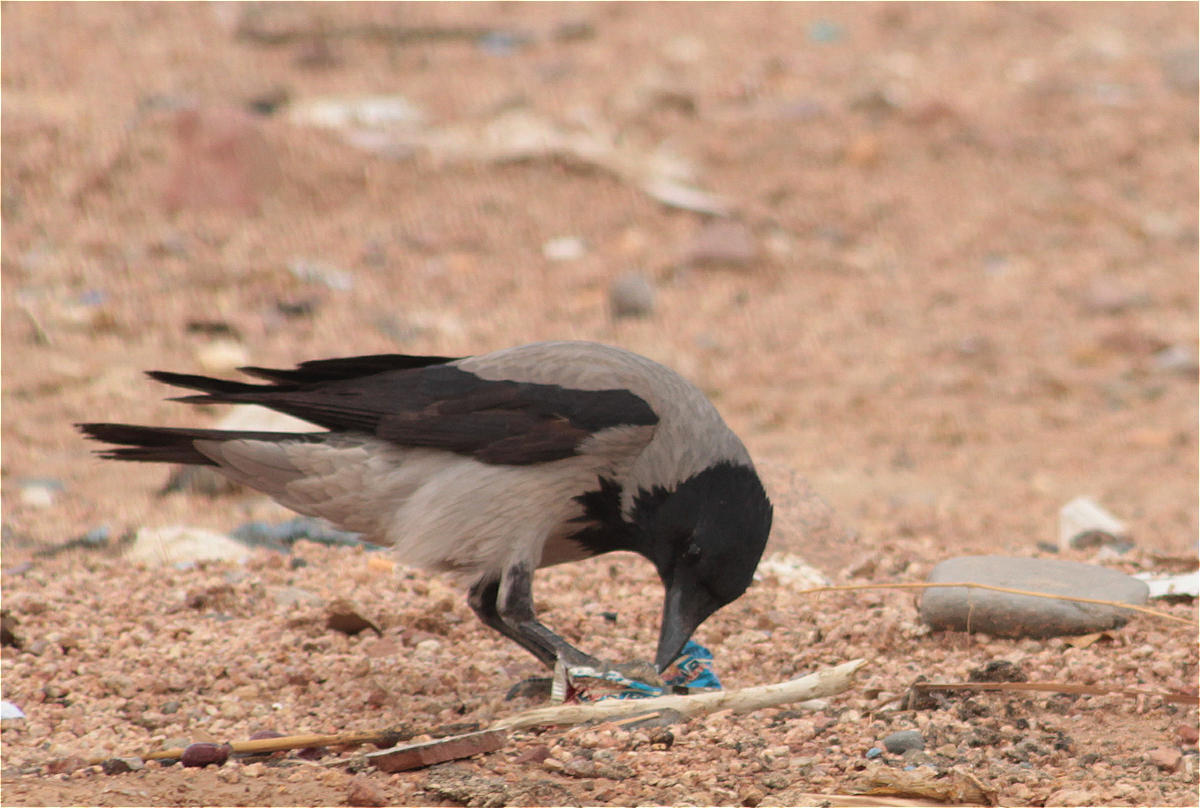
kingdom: Animalia
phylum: Chordata
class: Aves
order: Passeriformes
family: Corvidae
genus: Corvus
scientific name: Corvus cornix
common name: Hooded crow
